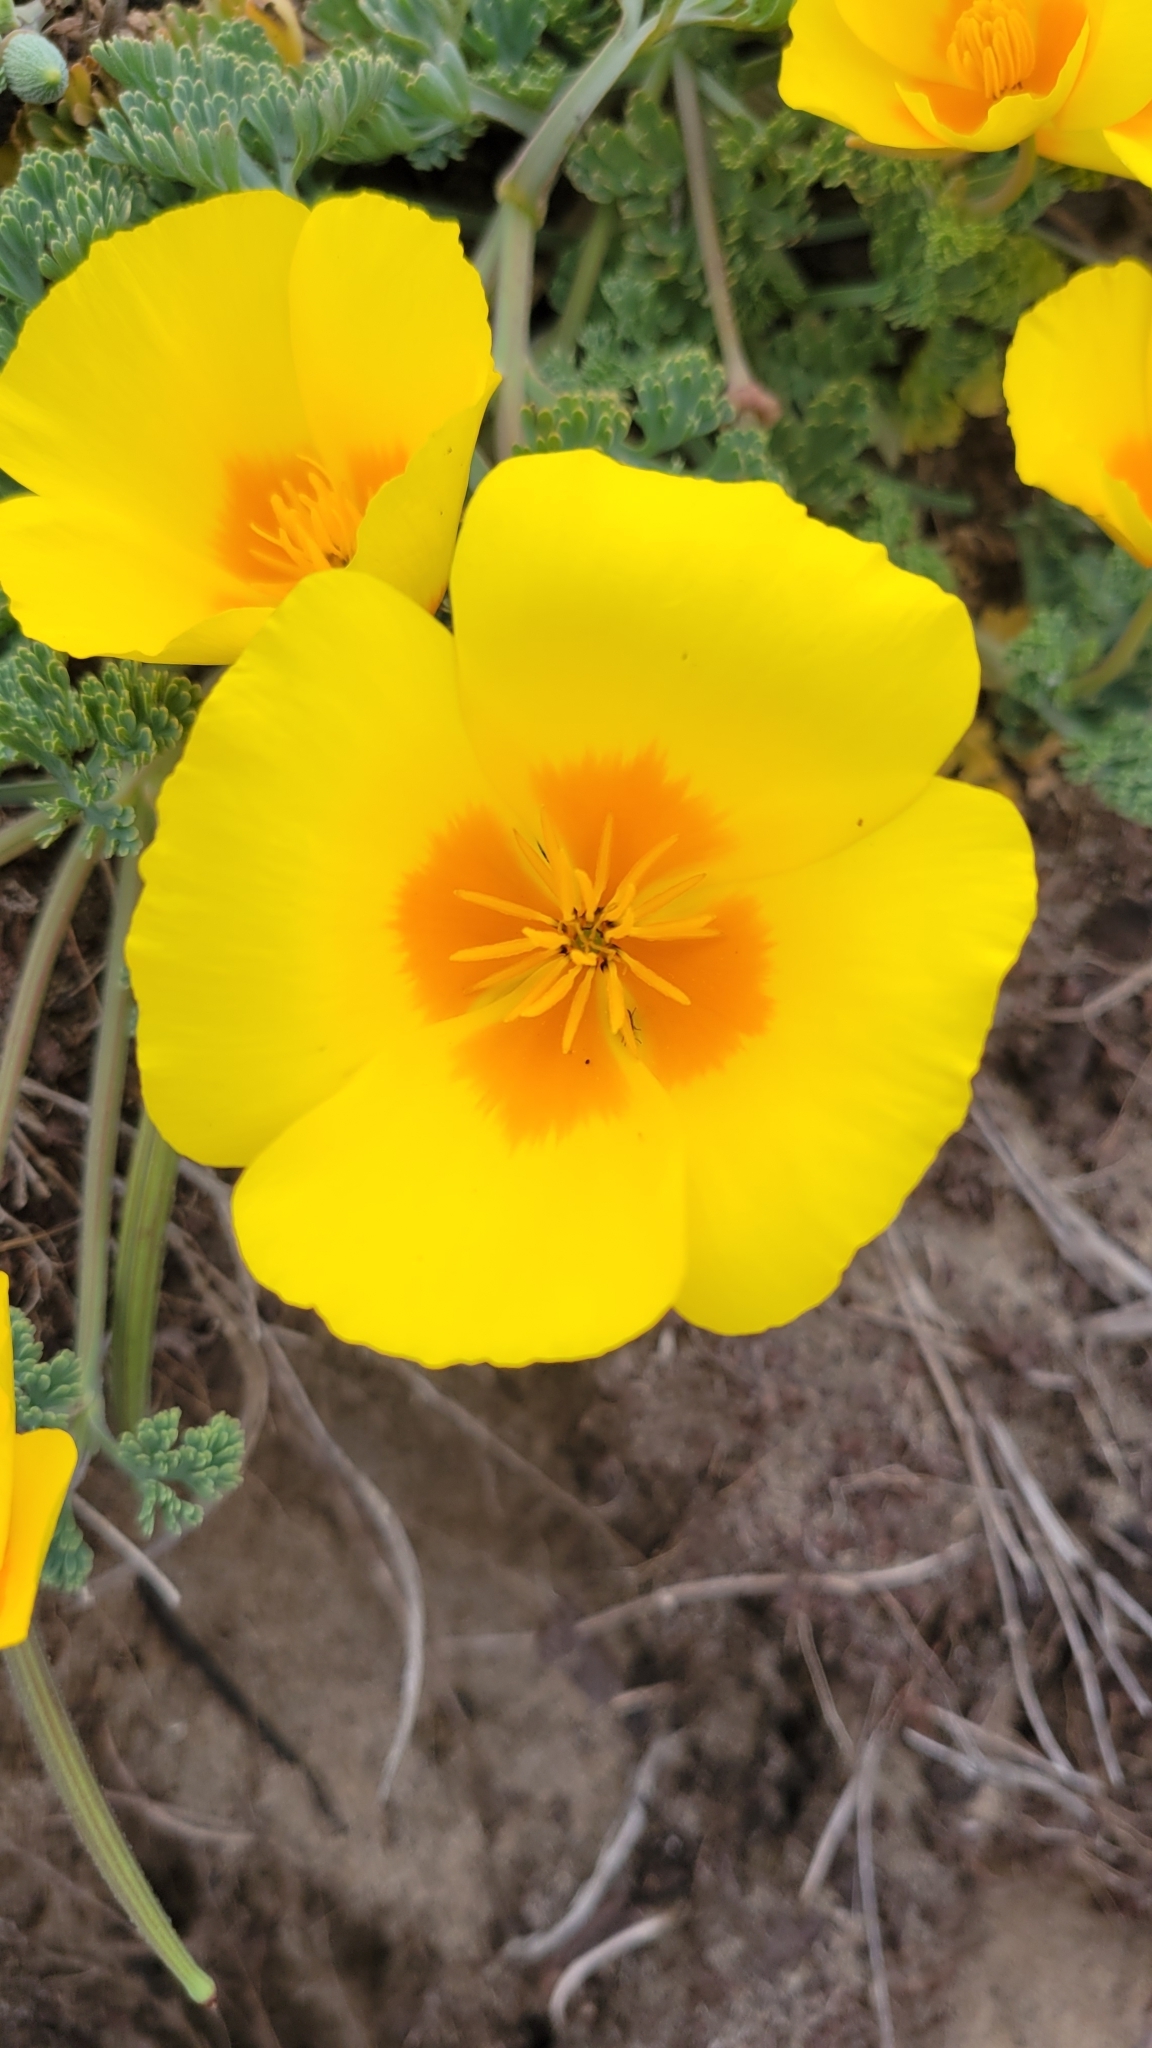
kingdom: Plantae
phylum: Tracheophyta
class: Magnoliopsida
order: Ranunculales
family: Papaveraceae
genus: Eschscholzia
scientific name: Eschscholzia californica
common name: California poppy
